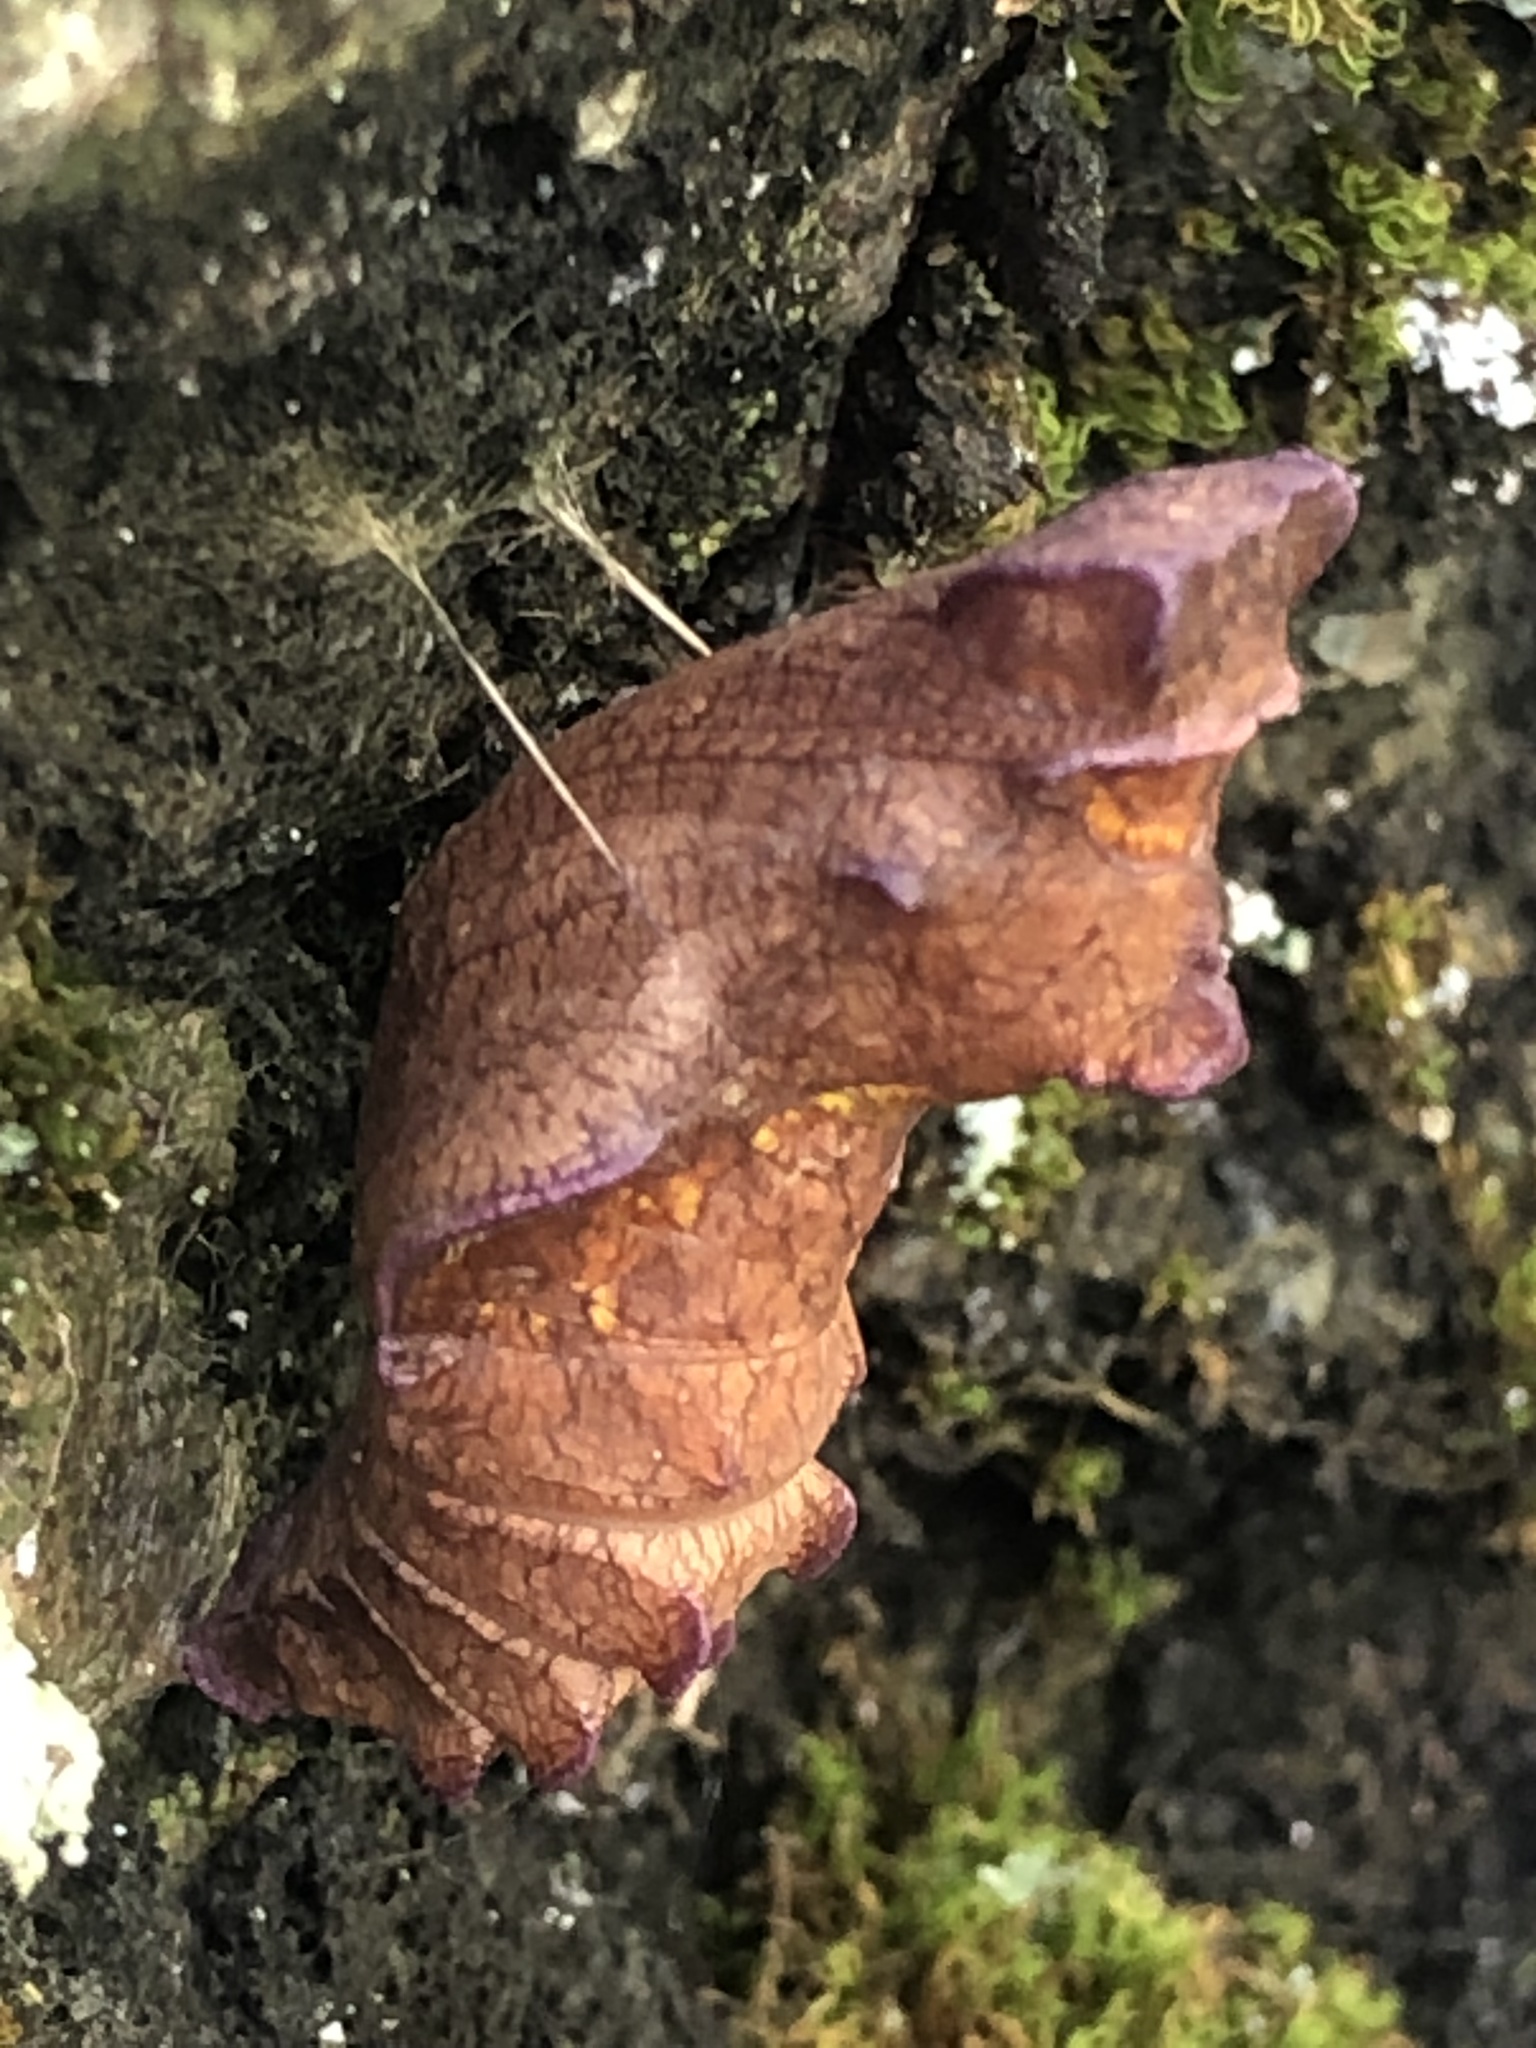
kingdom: Animalia
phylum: Arthropoda
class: Insecta
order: Lepidoptera
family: Papilionidae
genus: Battus
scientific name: Battus philenor
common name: Pipevine swallowtail
